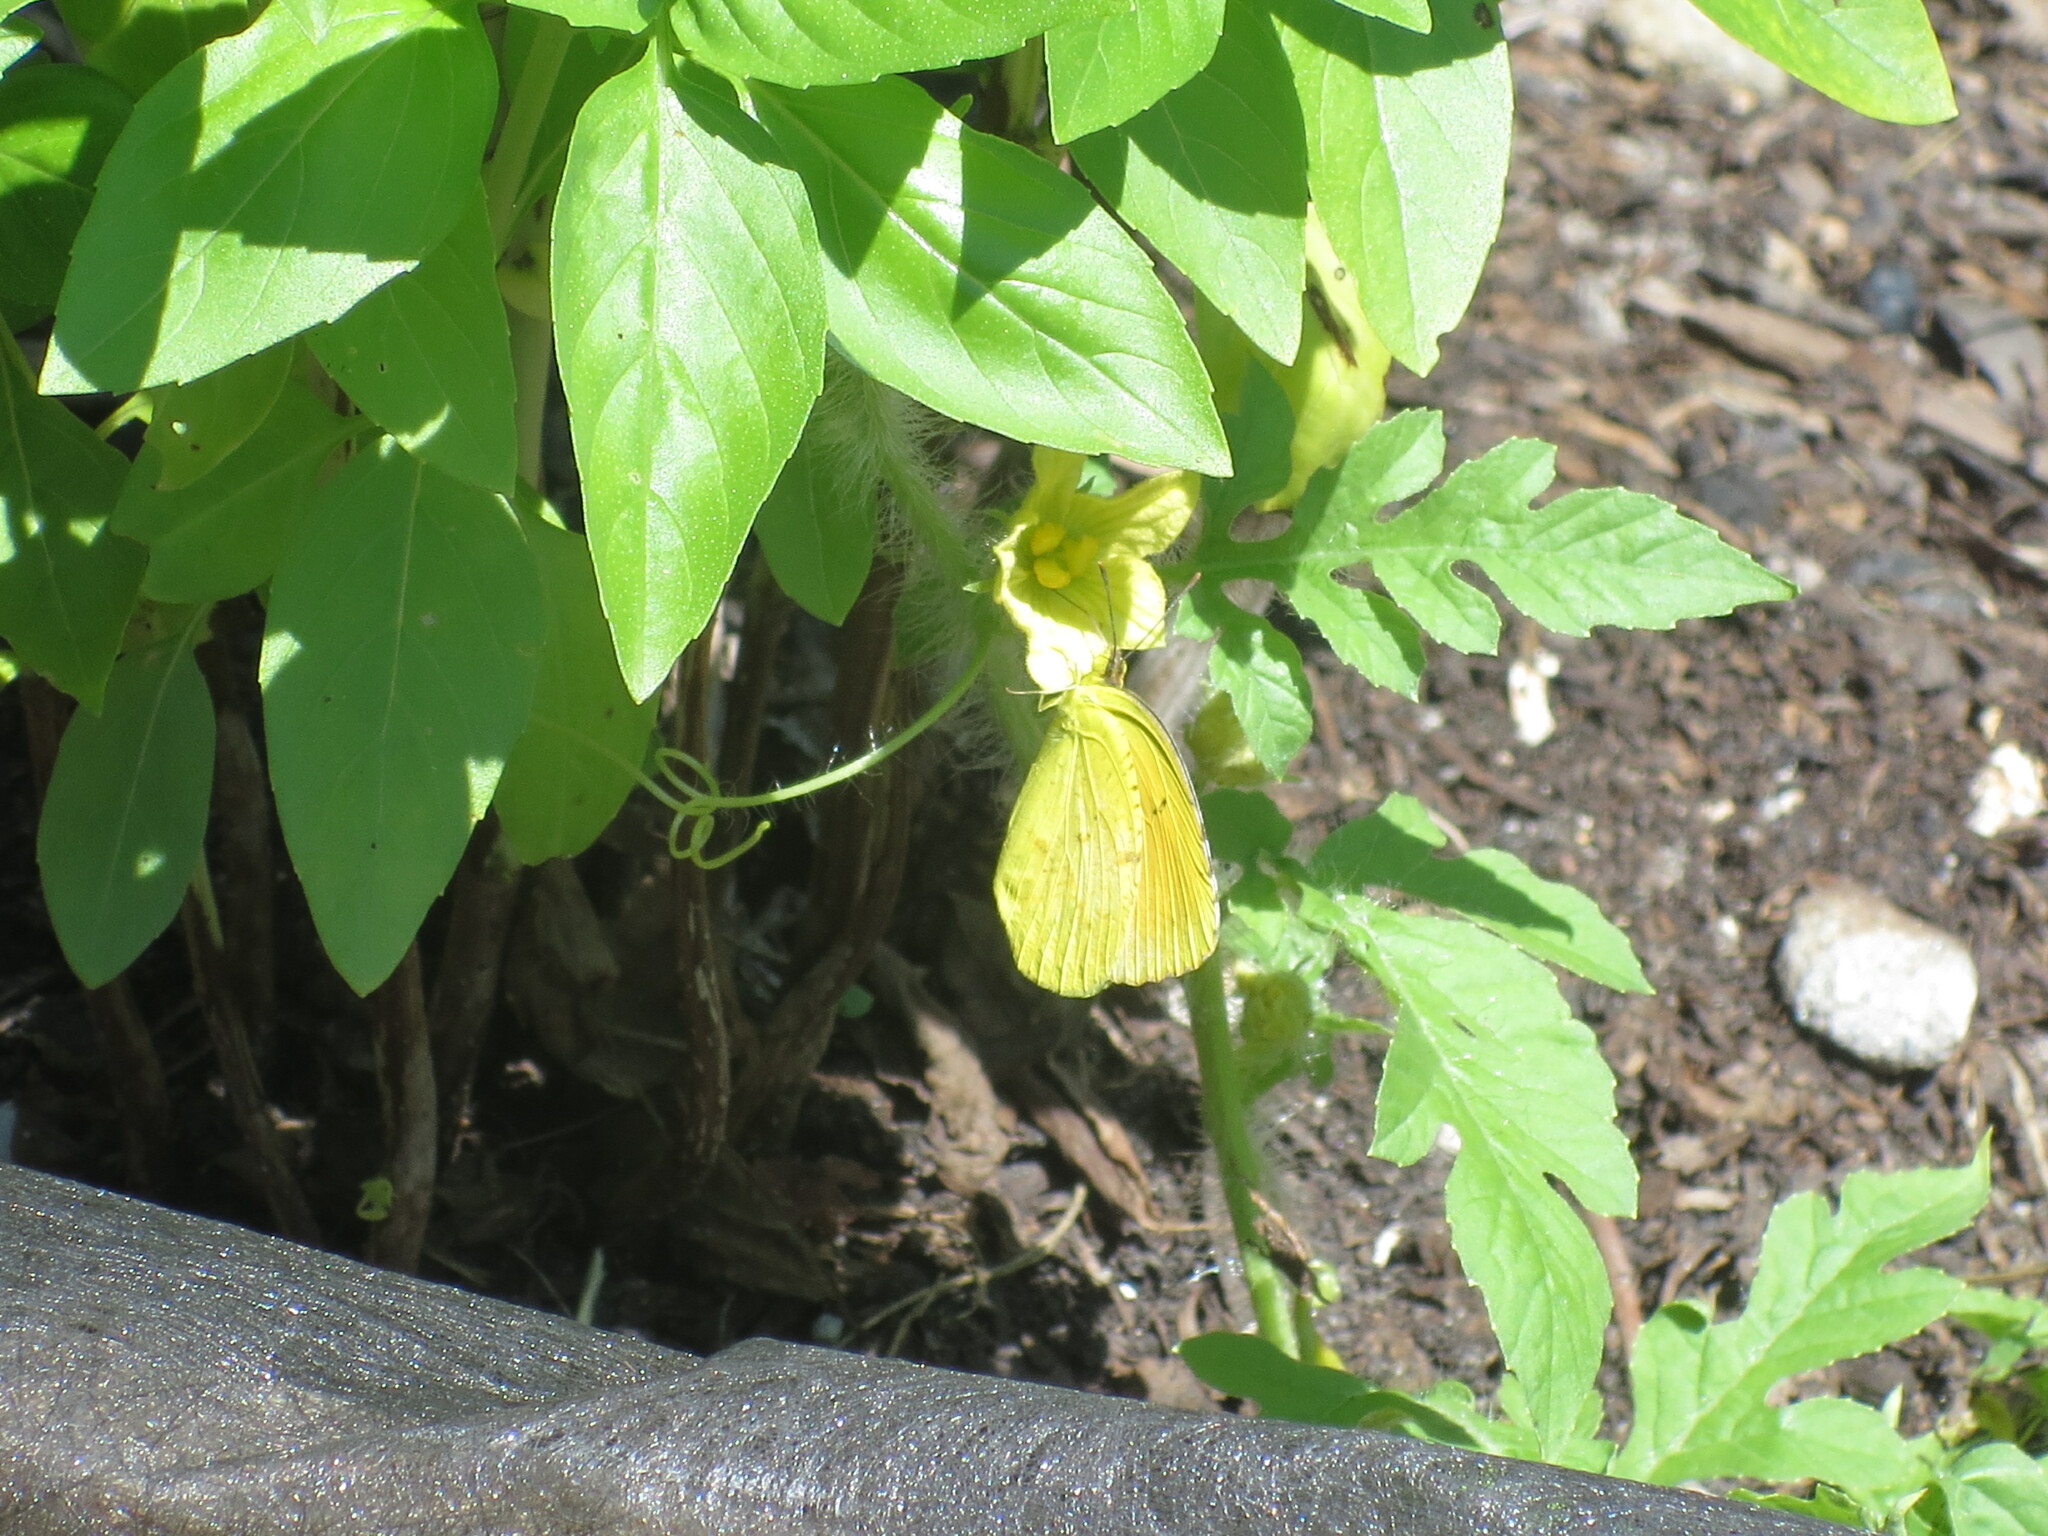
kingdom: Animalia
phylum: Arthropoda
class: Insecta
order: Lepidoptera
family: Pieridae
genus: Abaeis
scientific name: Abaeis nicippe
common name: Sleepy orange
